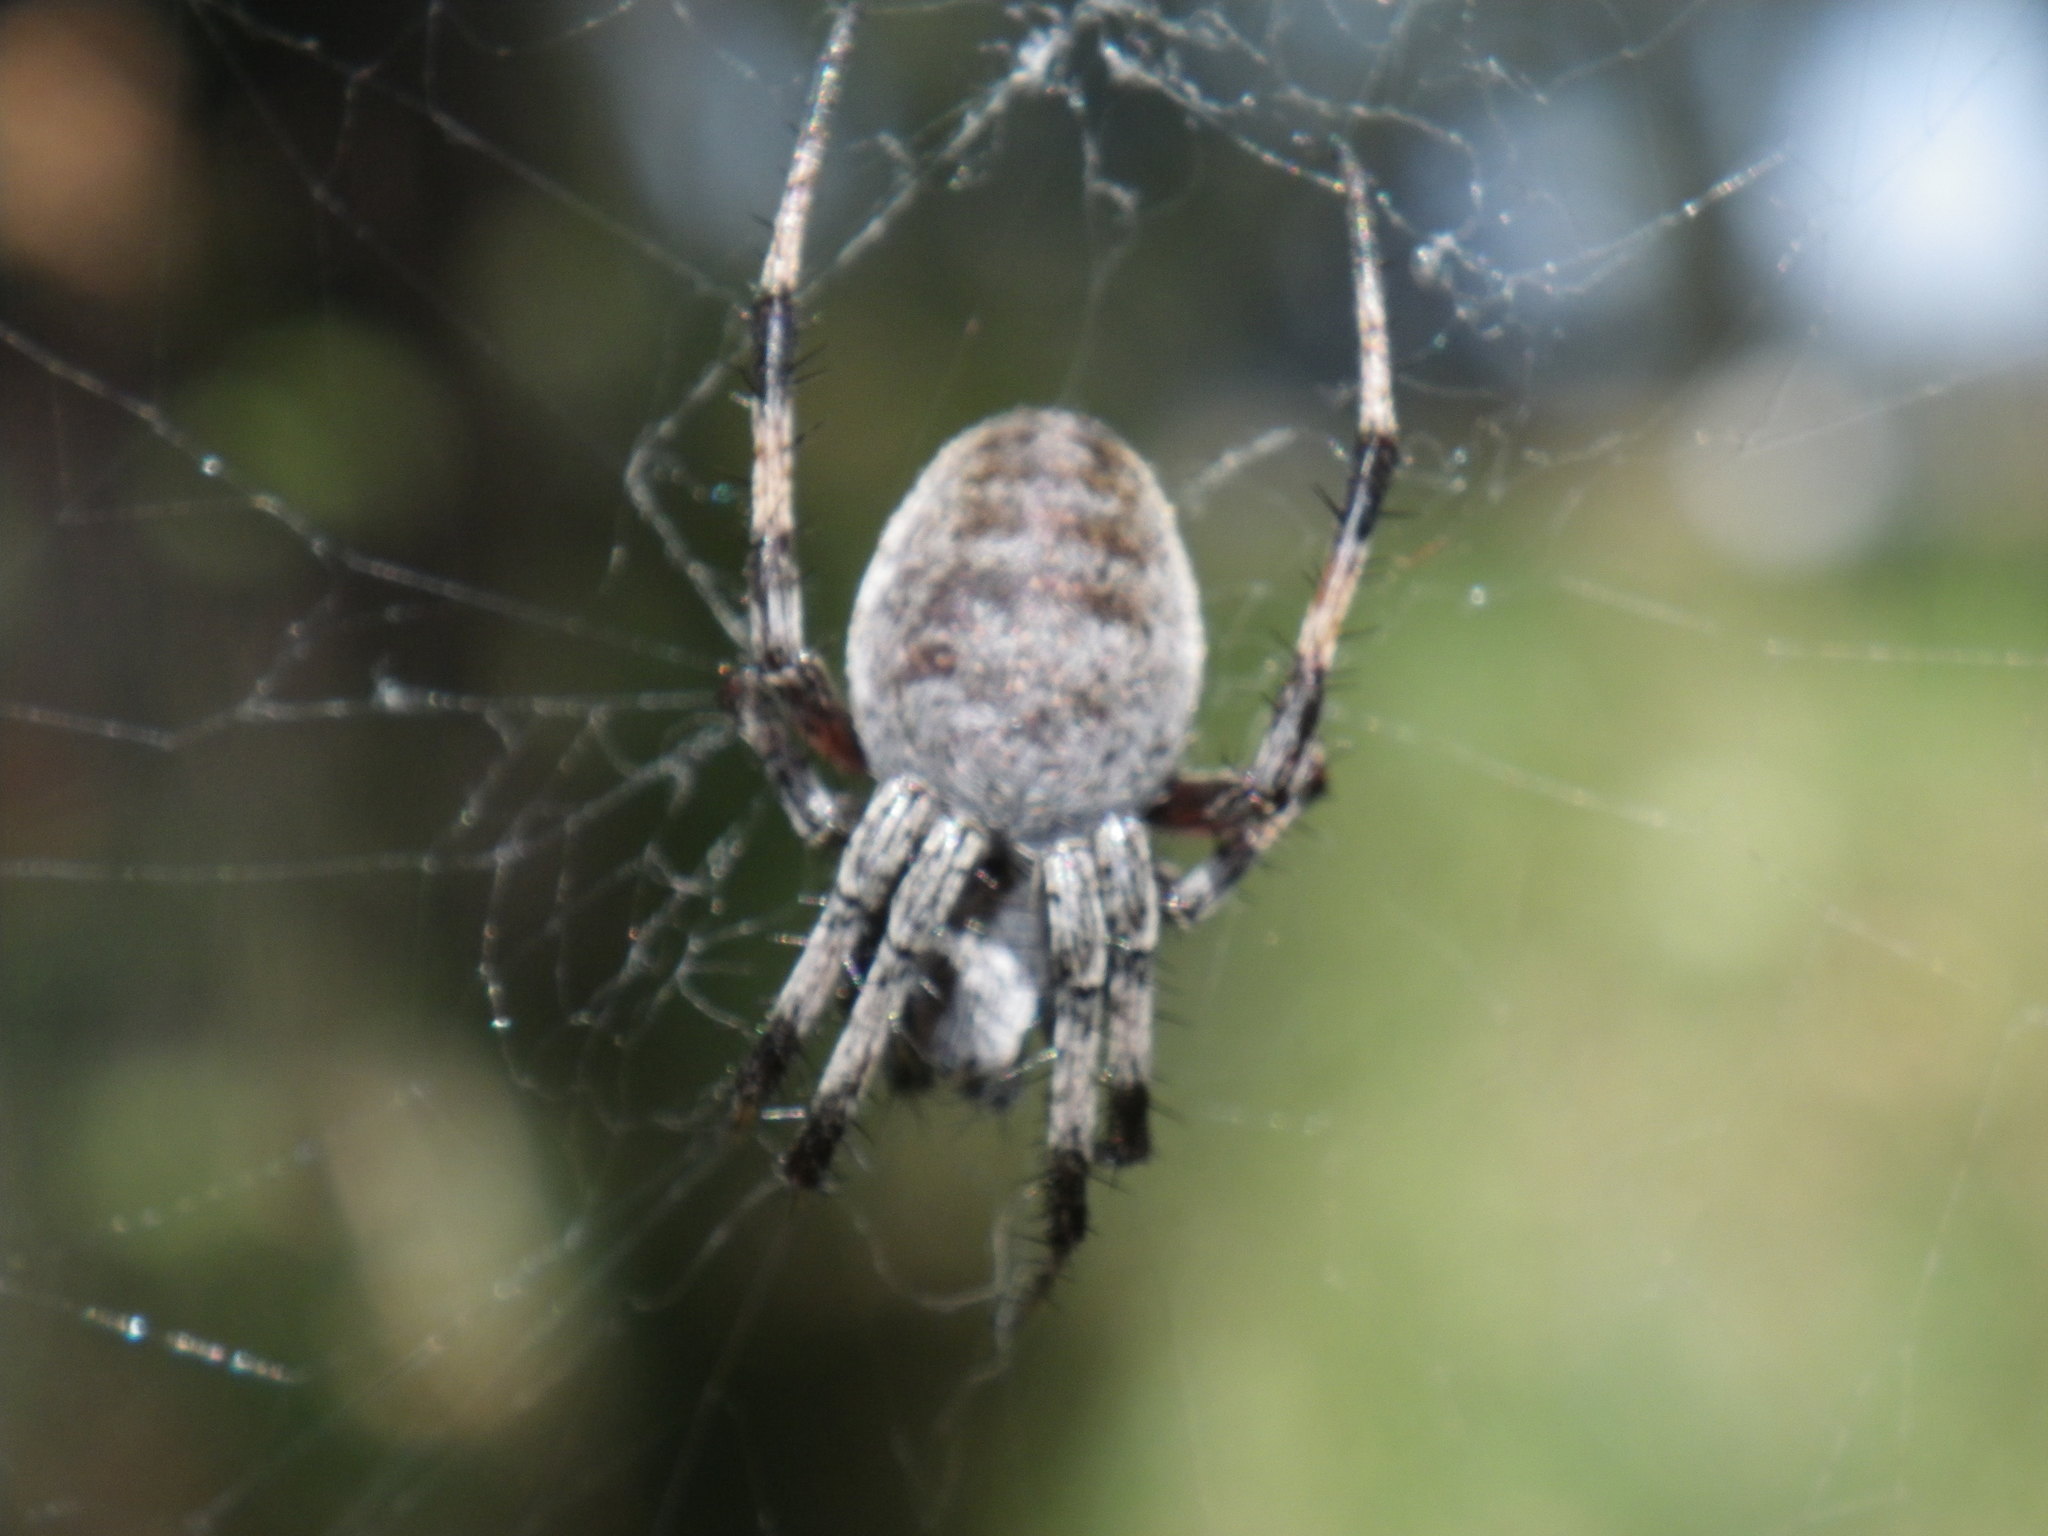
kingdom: Animalia
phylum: Arthropoda
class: Arachnida
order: Araneae
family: Araneidae
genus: Neoscona
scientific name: Neoscona oaxacensis
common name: Orb weavers
